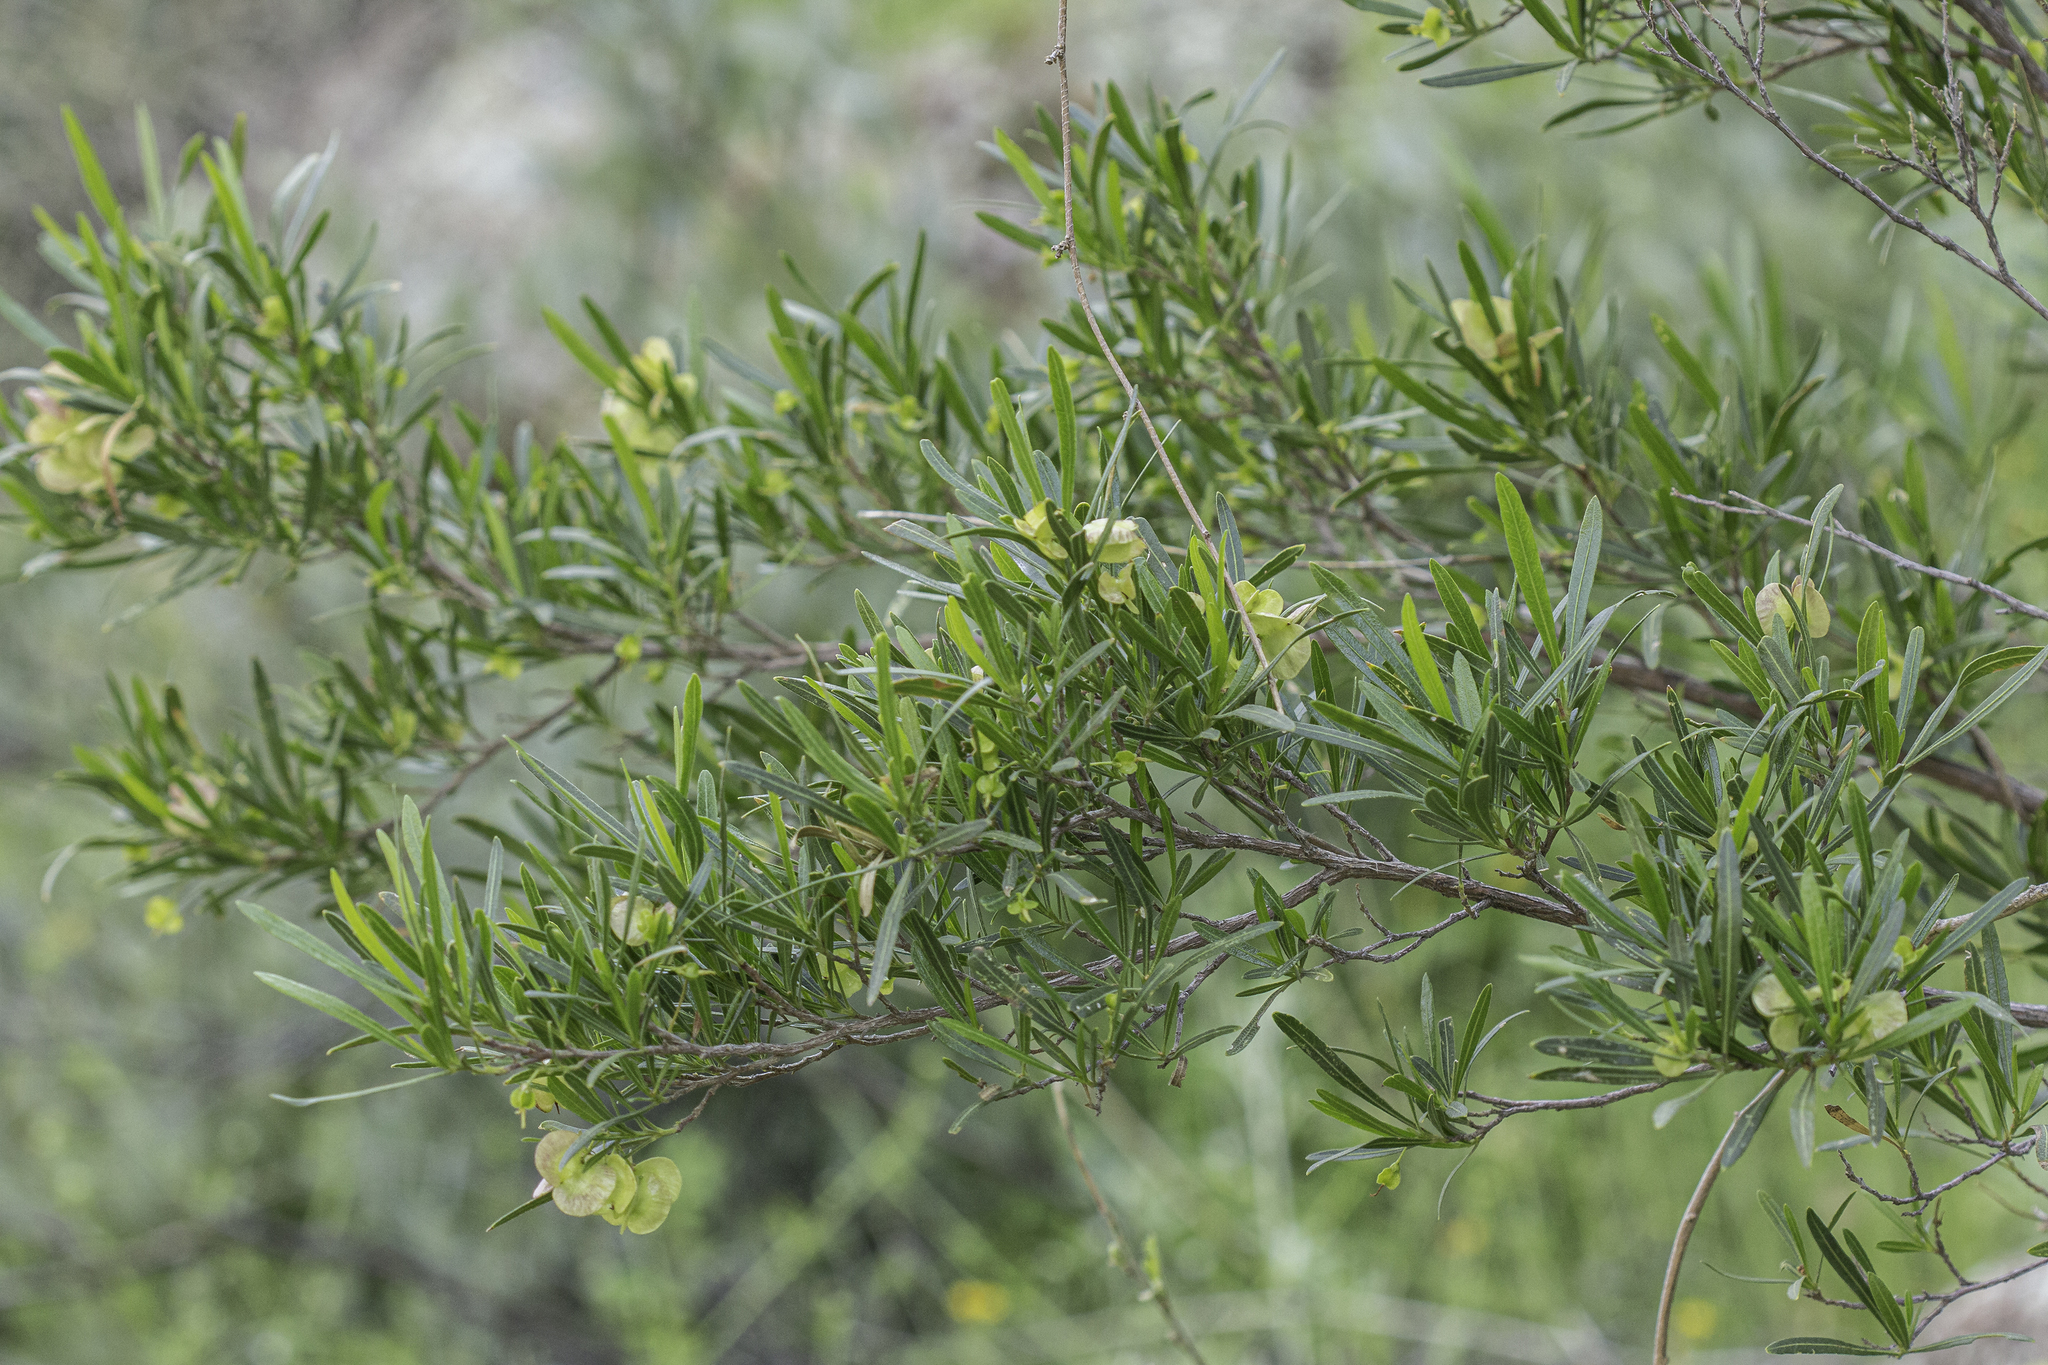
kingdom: Plantae
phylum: Tracheophyta
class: Magnoliopsida
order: Sapindales
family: Sapindaceae
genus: Dodonaea
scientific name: Dodonaea viscosa
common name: Hopbush
